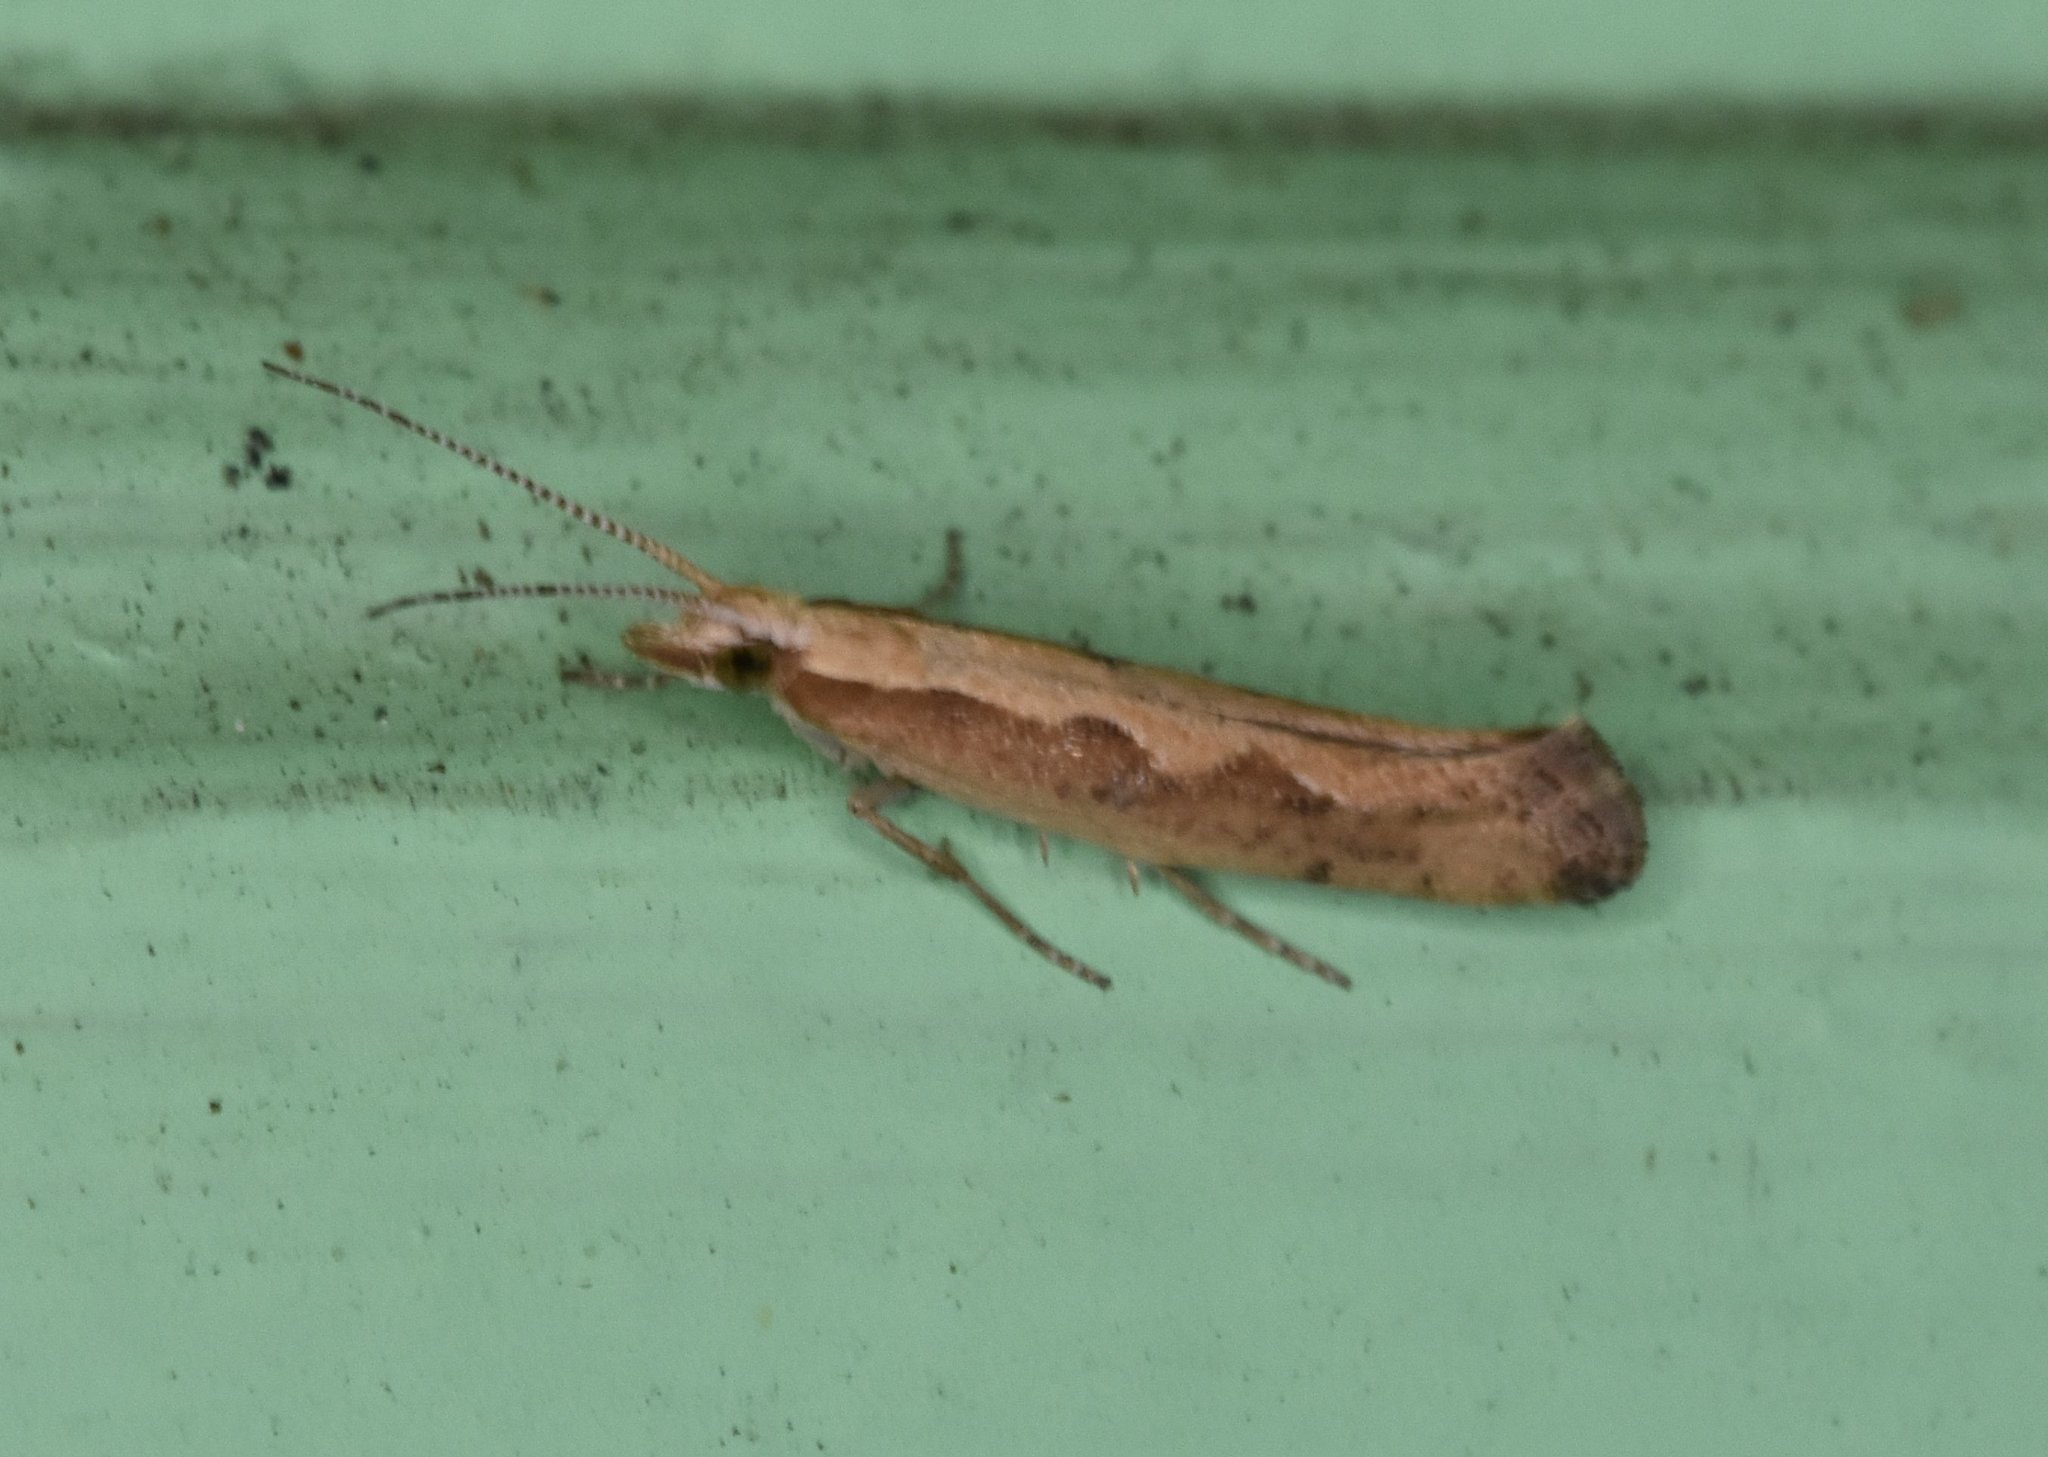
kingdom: Animalia
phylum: Arthropoda
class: Insecta
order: Lepidoptera
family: Plutellidae
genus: Plutella
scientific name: Plutella xylostella
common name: Diamond-back moth
